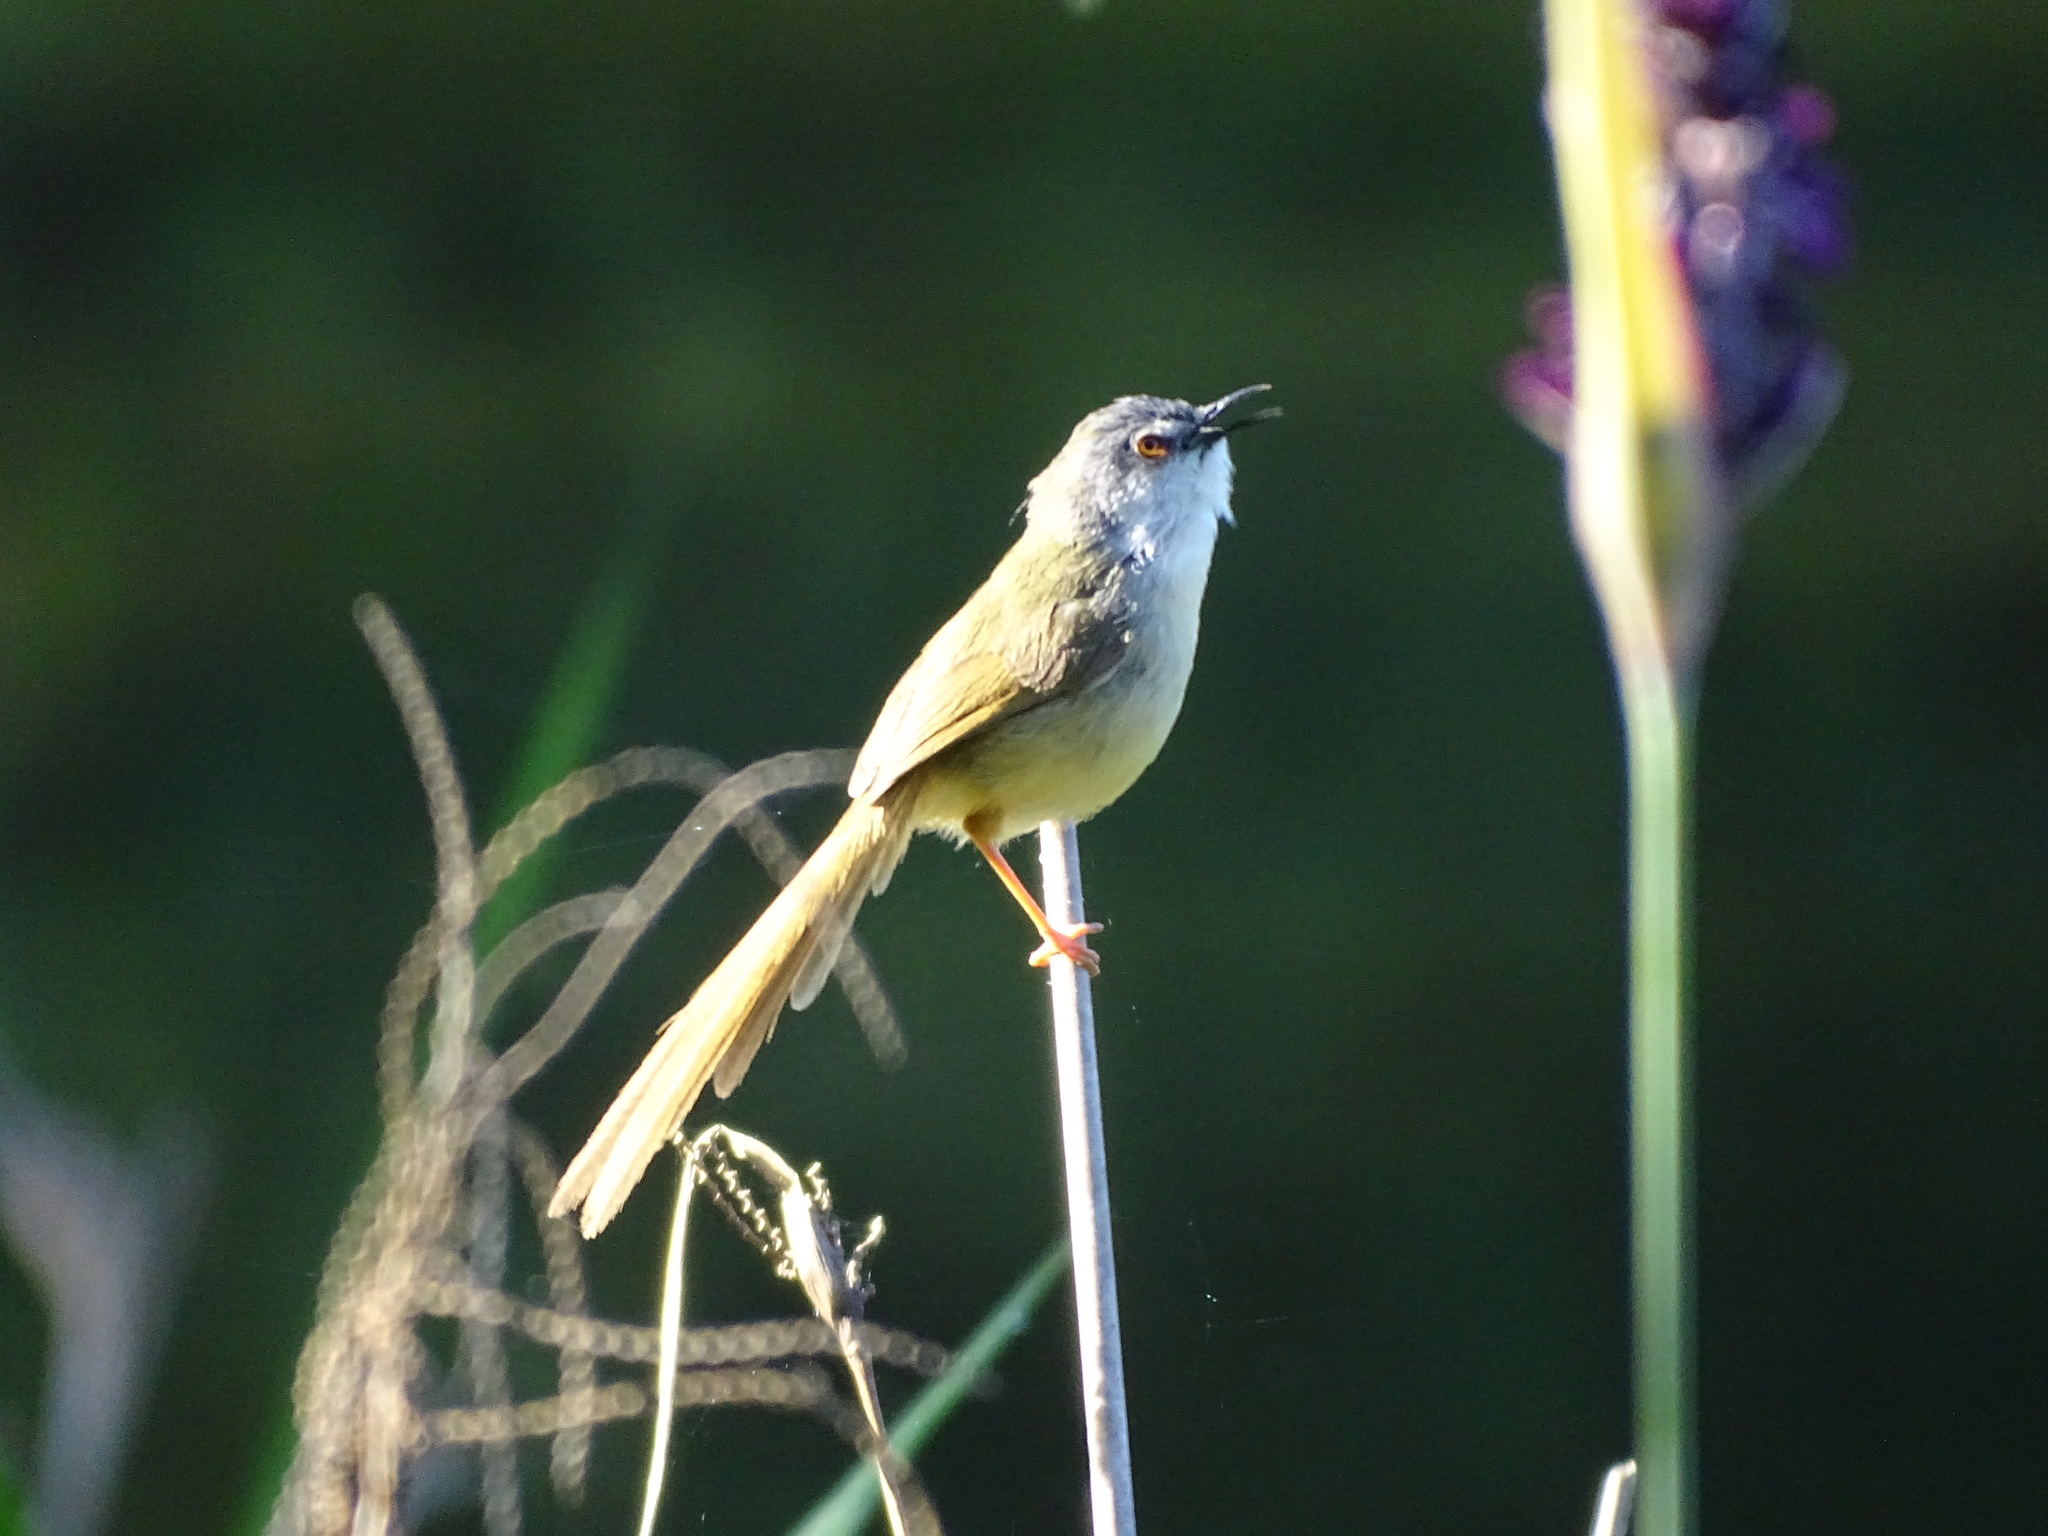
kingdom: Animalia
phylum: Chordata
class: Aves
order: Passeriformes
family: Cisticolidae
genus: Prinia
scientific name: Prinia flaviventris
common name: Yellow-bellied prinia
